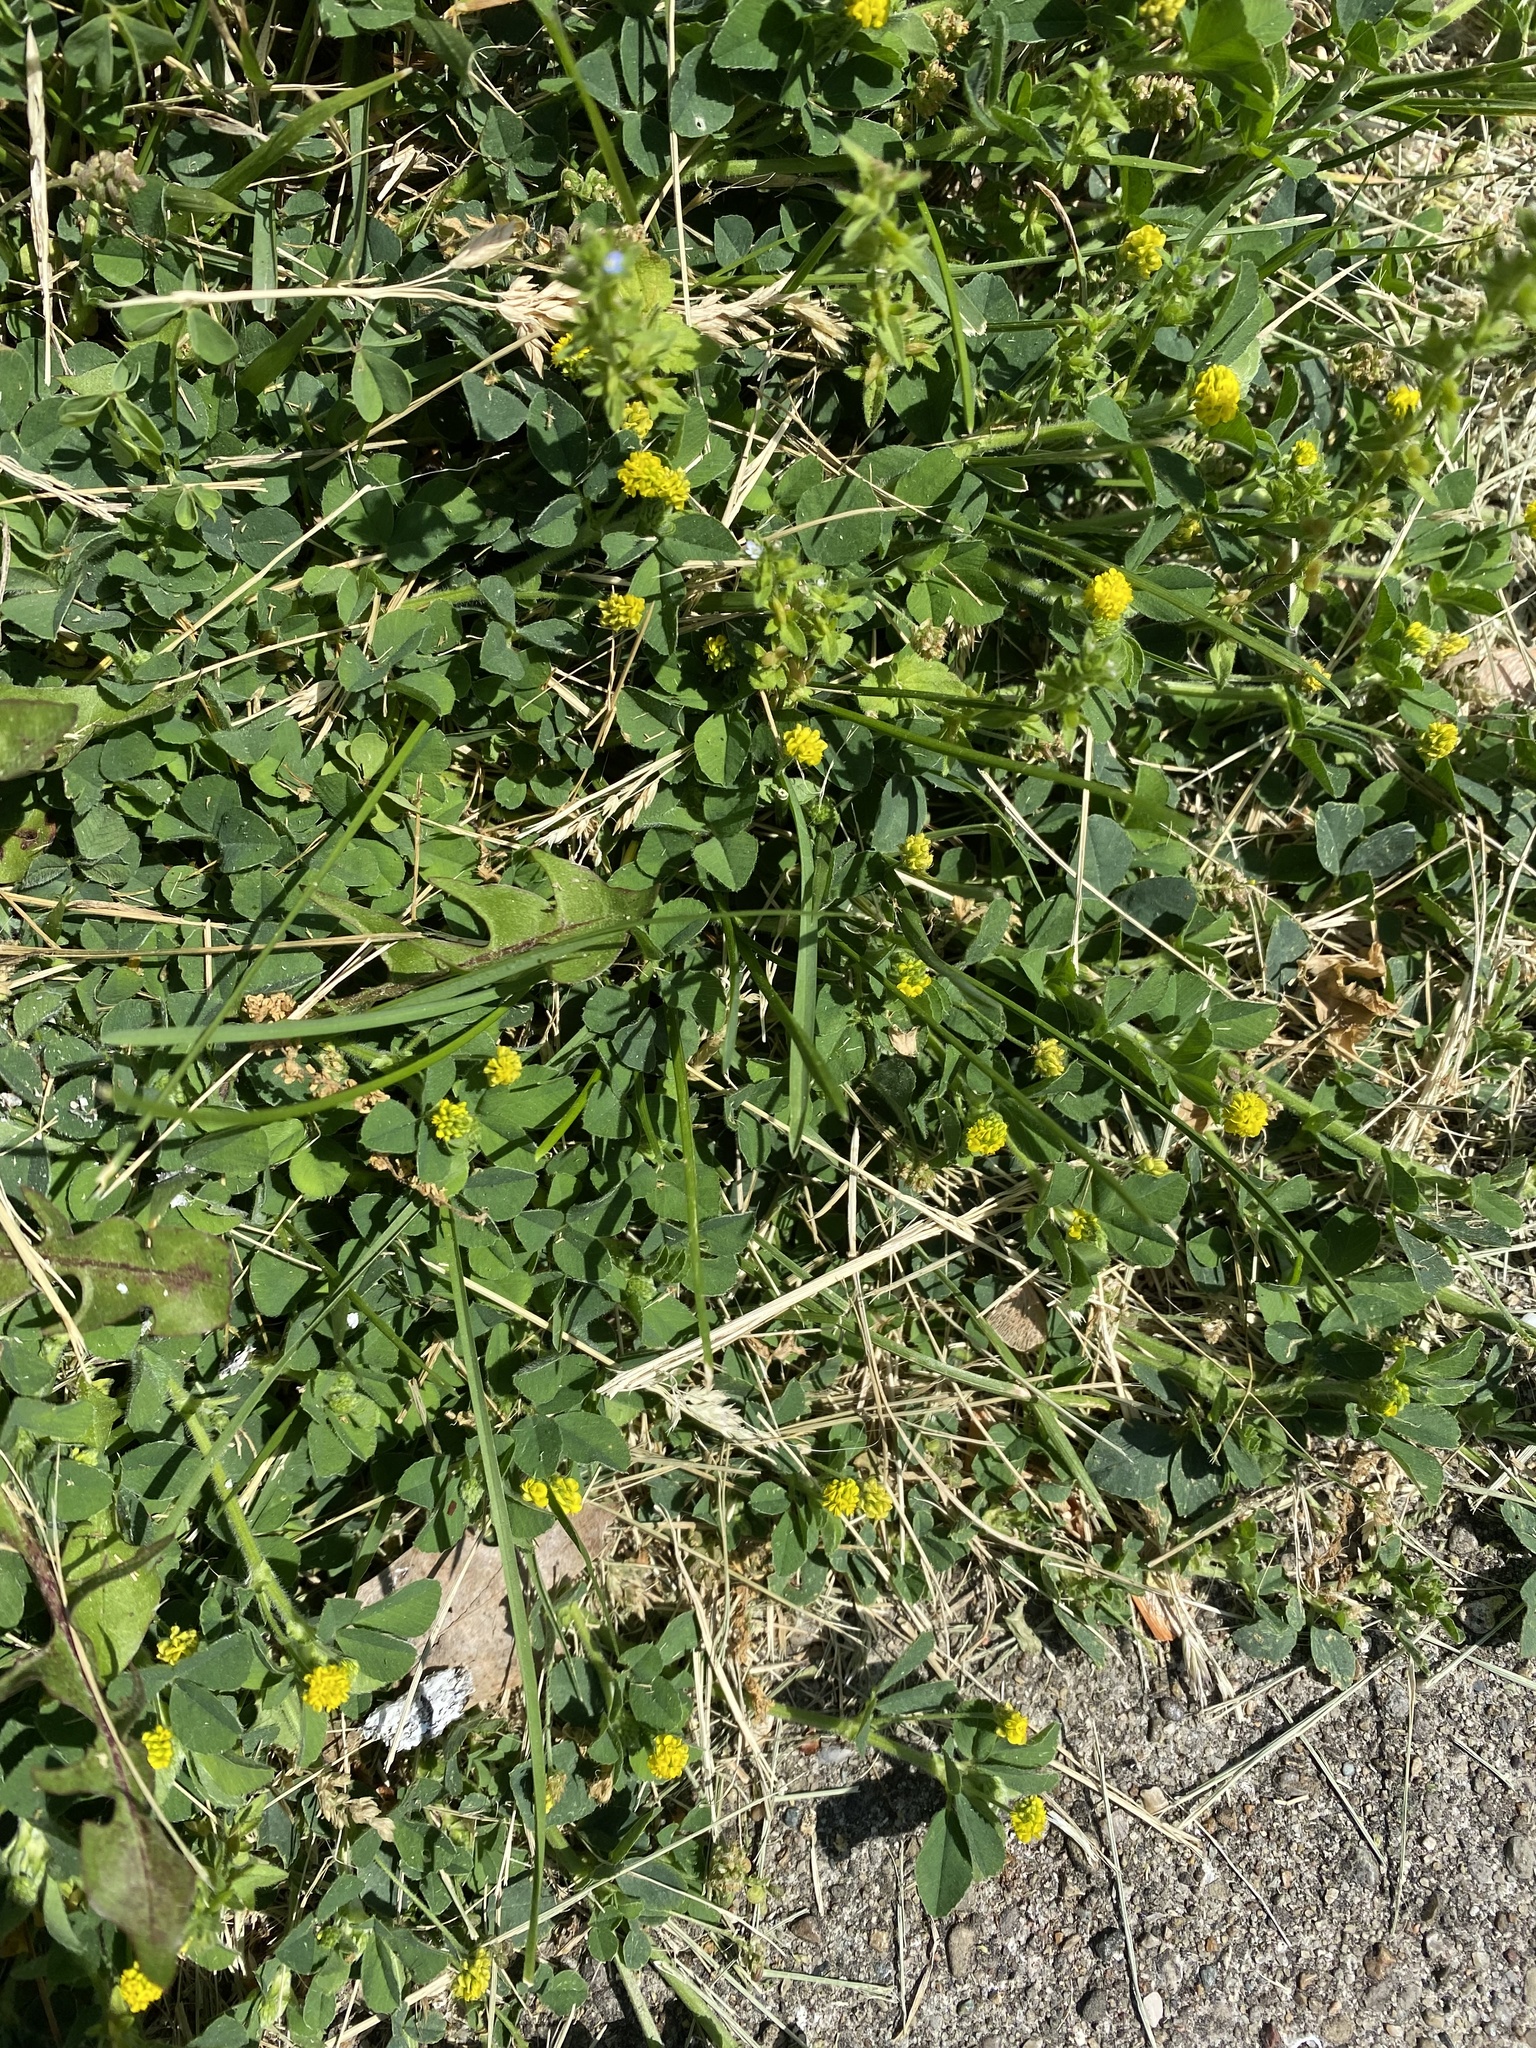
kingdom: Plantae
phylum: Tracheophyta
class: Magnoliopsida
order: Fabales
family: Fabaceae
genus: Medicago
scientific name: Medicago lupulina
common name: Black medick
